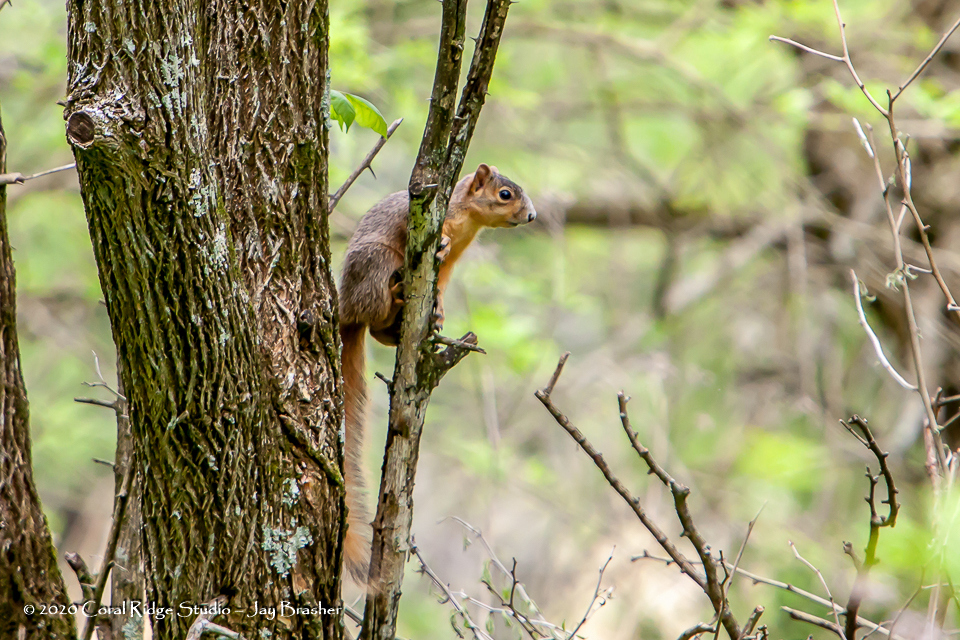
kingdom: Animalia
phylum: Chordata
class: Mammalia
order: Rodentia
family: Sciuridae
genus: Sciurus
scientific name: Sciurus niger
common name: Fox squirrel
